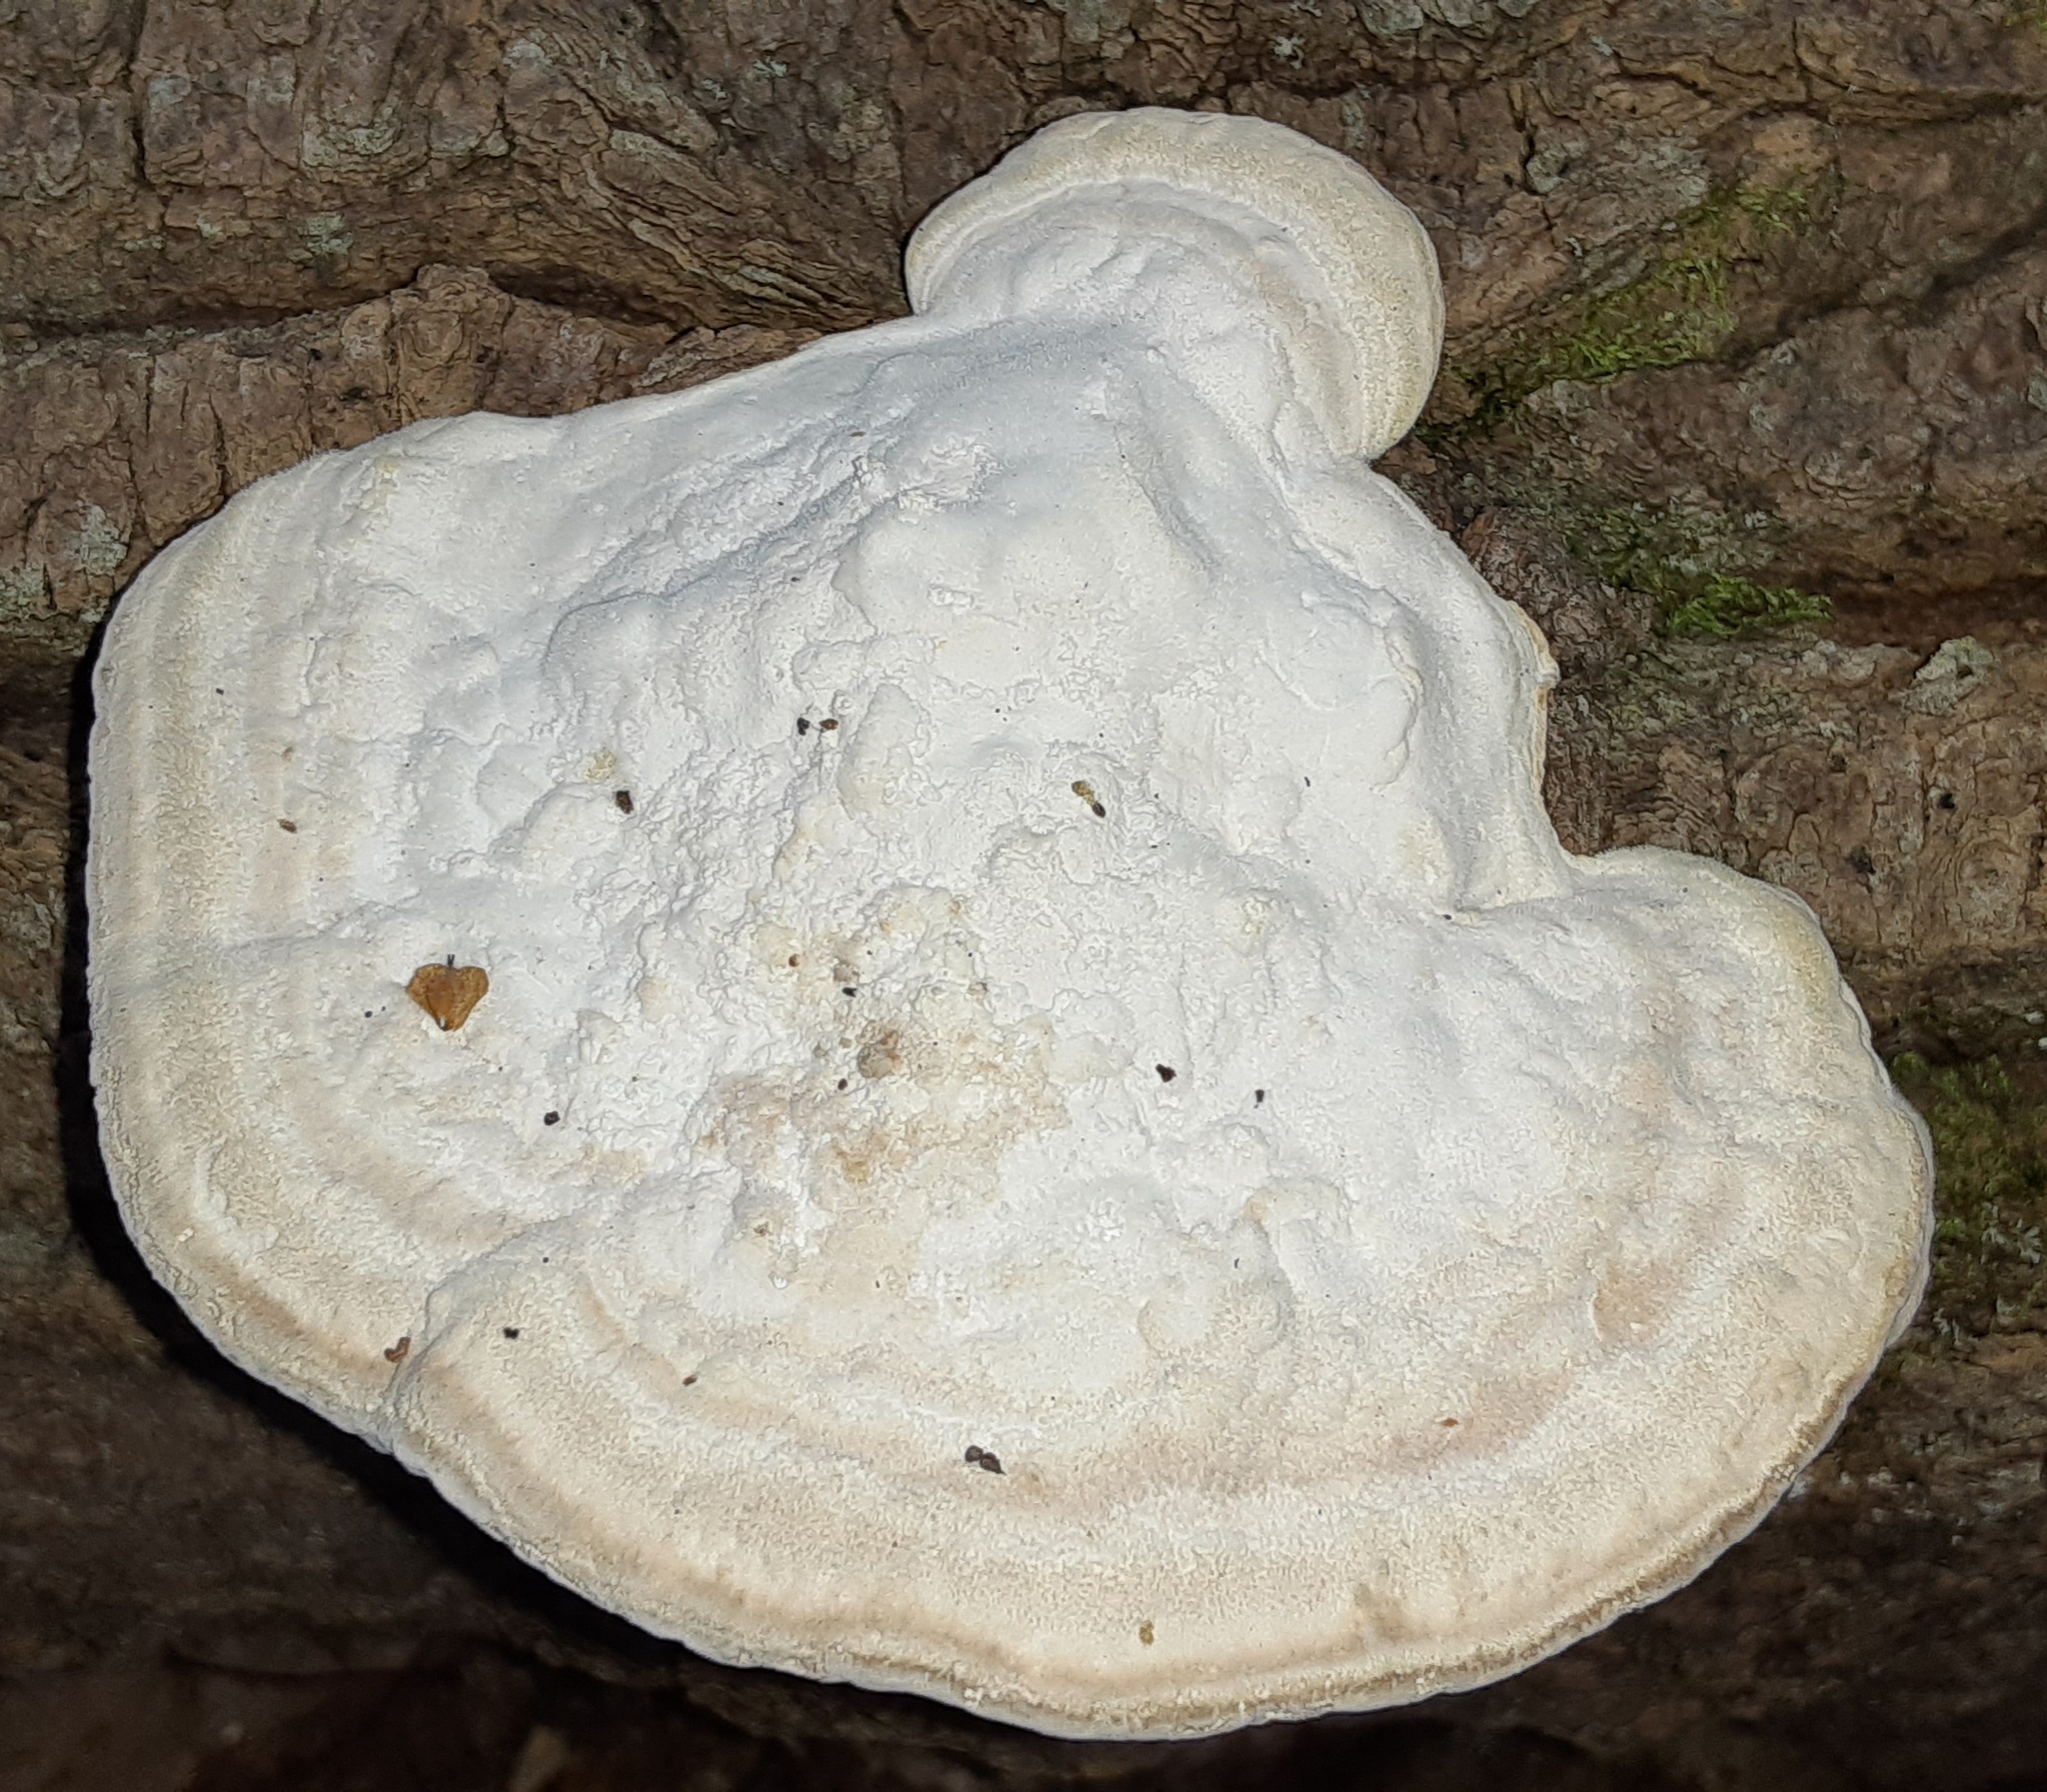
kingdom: Fungi
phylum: Basidiomycota
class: Agaricomycetes
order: Polyporales
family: Polyporaceae
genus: Trametes
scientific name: Trametes gibbosa
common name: Lumpy bracket
